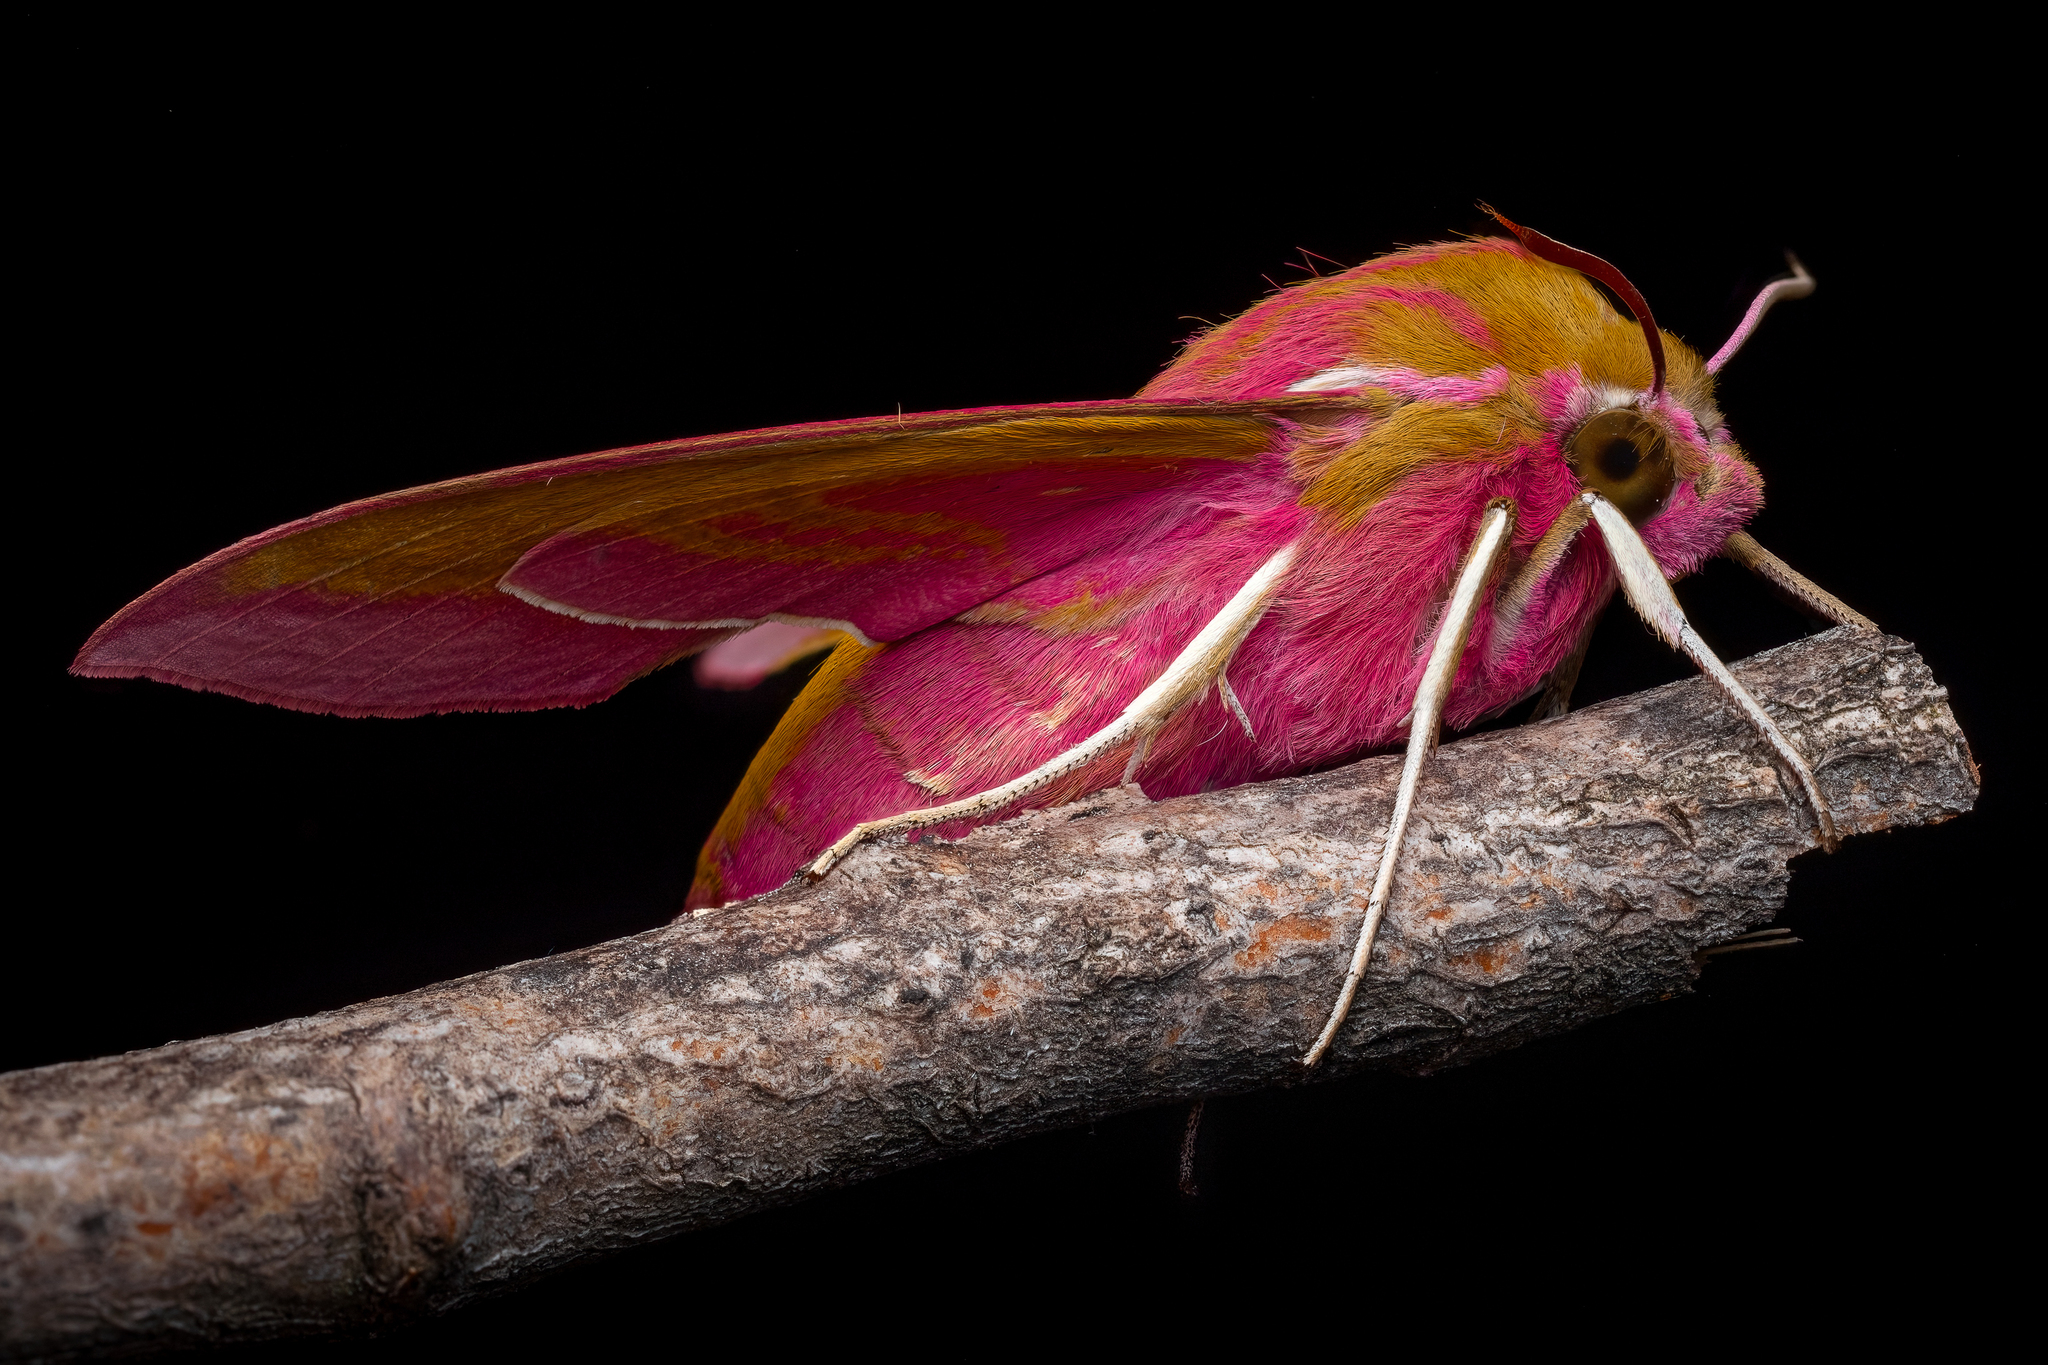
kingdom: Animalia
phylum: Arthropoda
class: Insecta
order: Lepidoptera
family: Sphingidae
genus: Deilephila
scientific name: Deilephila elpenor
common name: Elephant hawk-moth
